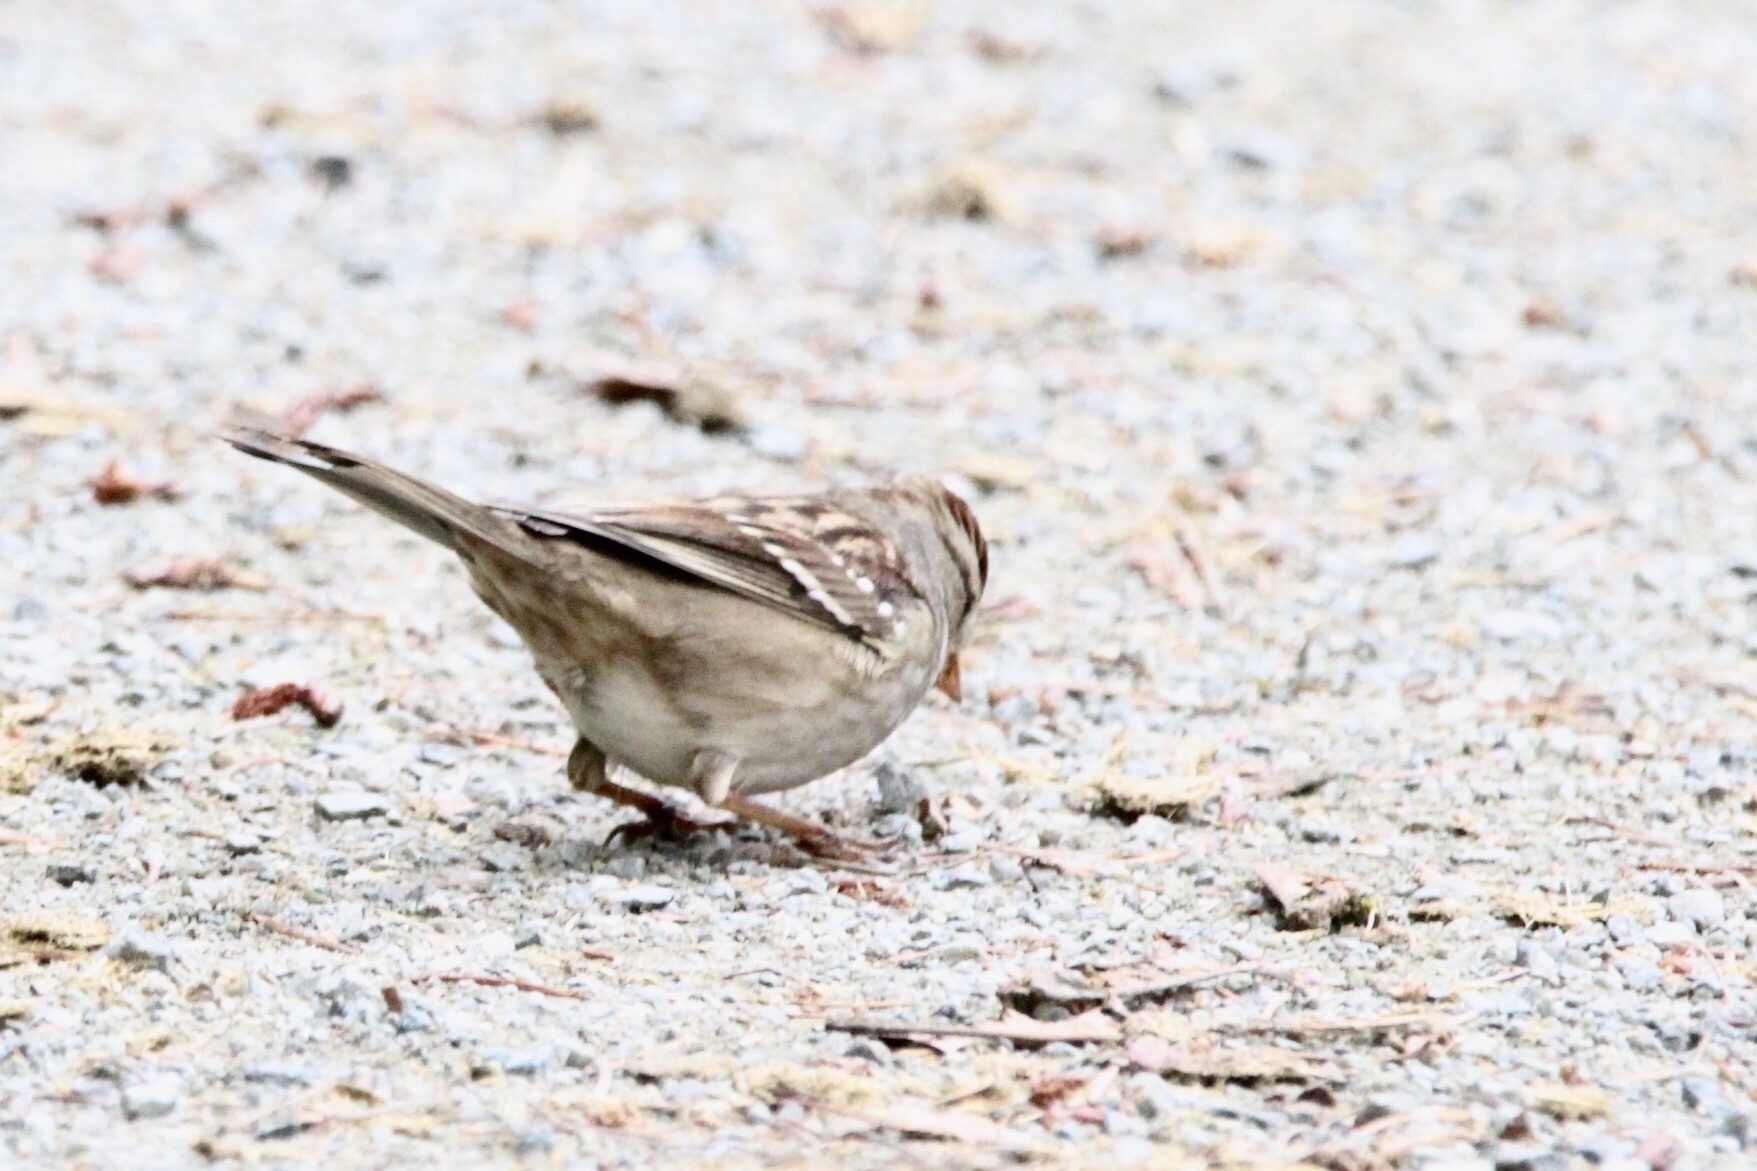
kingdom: Animalia
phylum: Chordata
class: Aves
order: Passeriformes
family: Passerellidae
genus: Zonotrichia
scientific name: Zonotrichia leucophrys
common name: White-crowned sparrow
